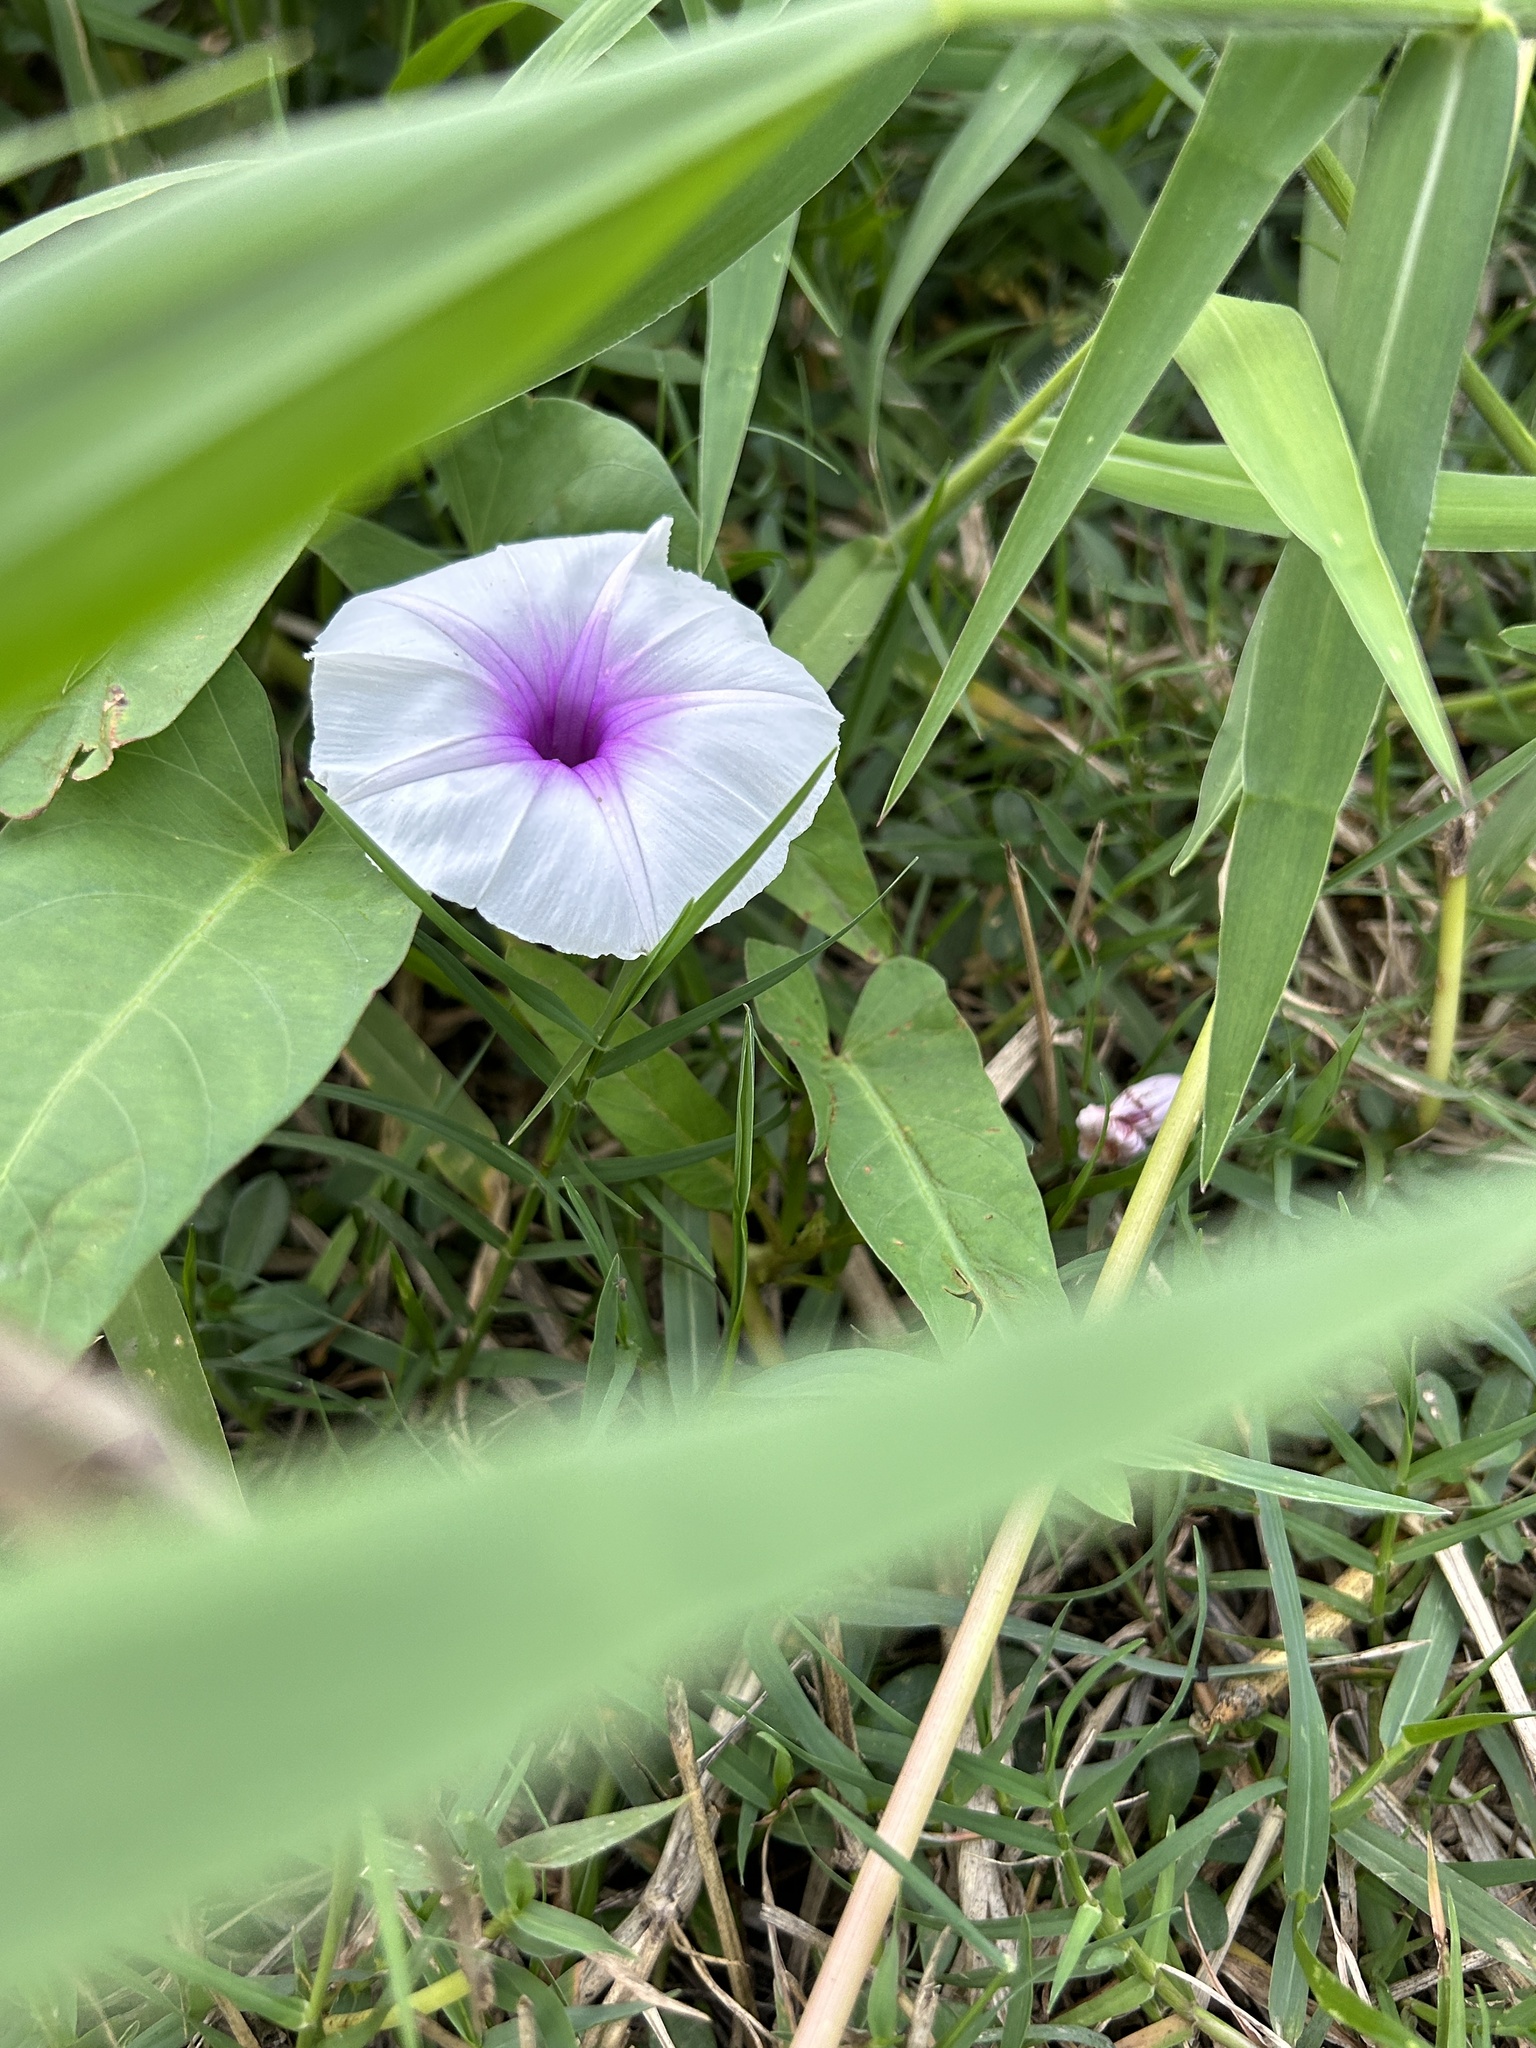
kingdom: Plantae
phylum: Tracheophyta
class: Magnoliopsida
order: Solanales
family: Convolvulaceae
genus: Ipomoea
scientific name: Ipomoea aquatica
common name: Swamp morning-glory
